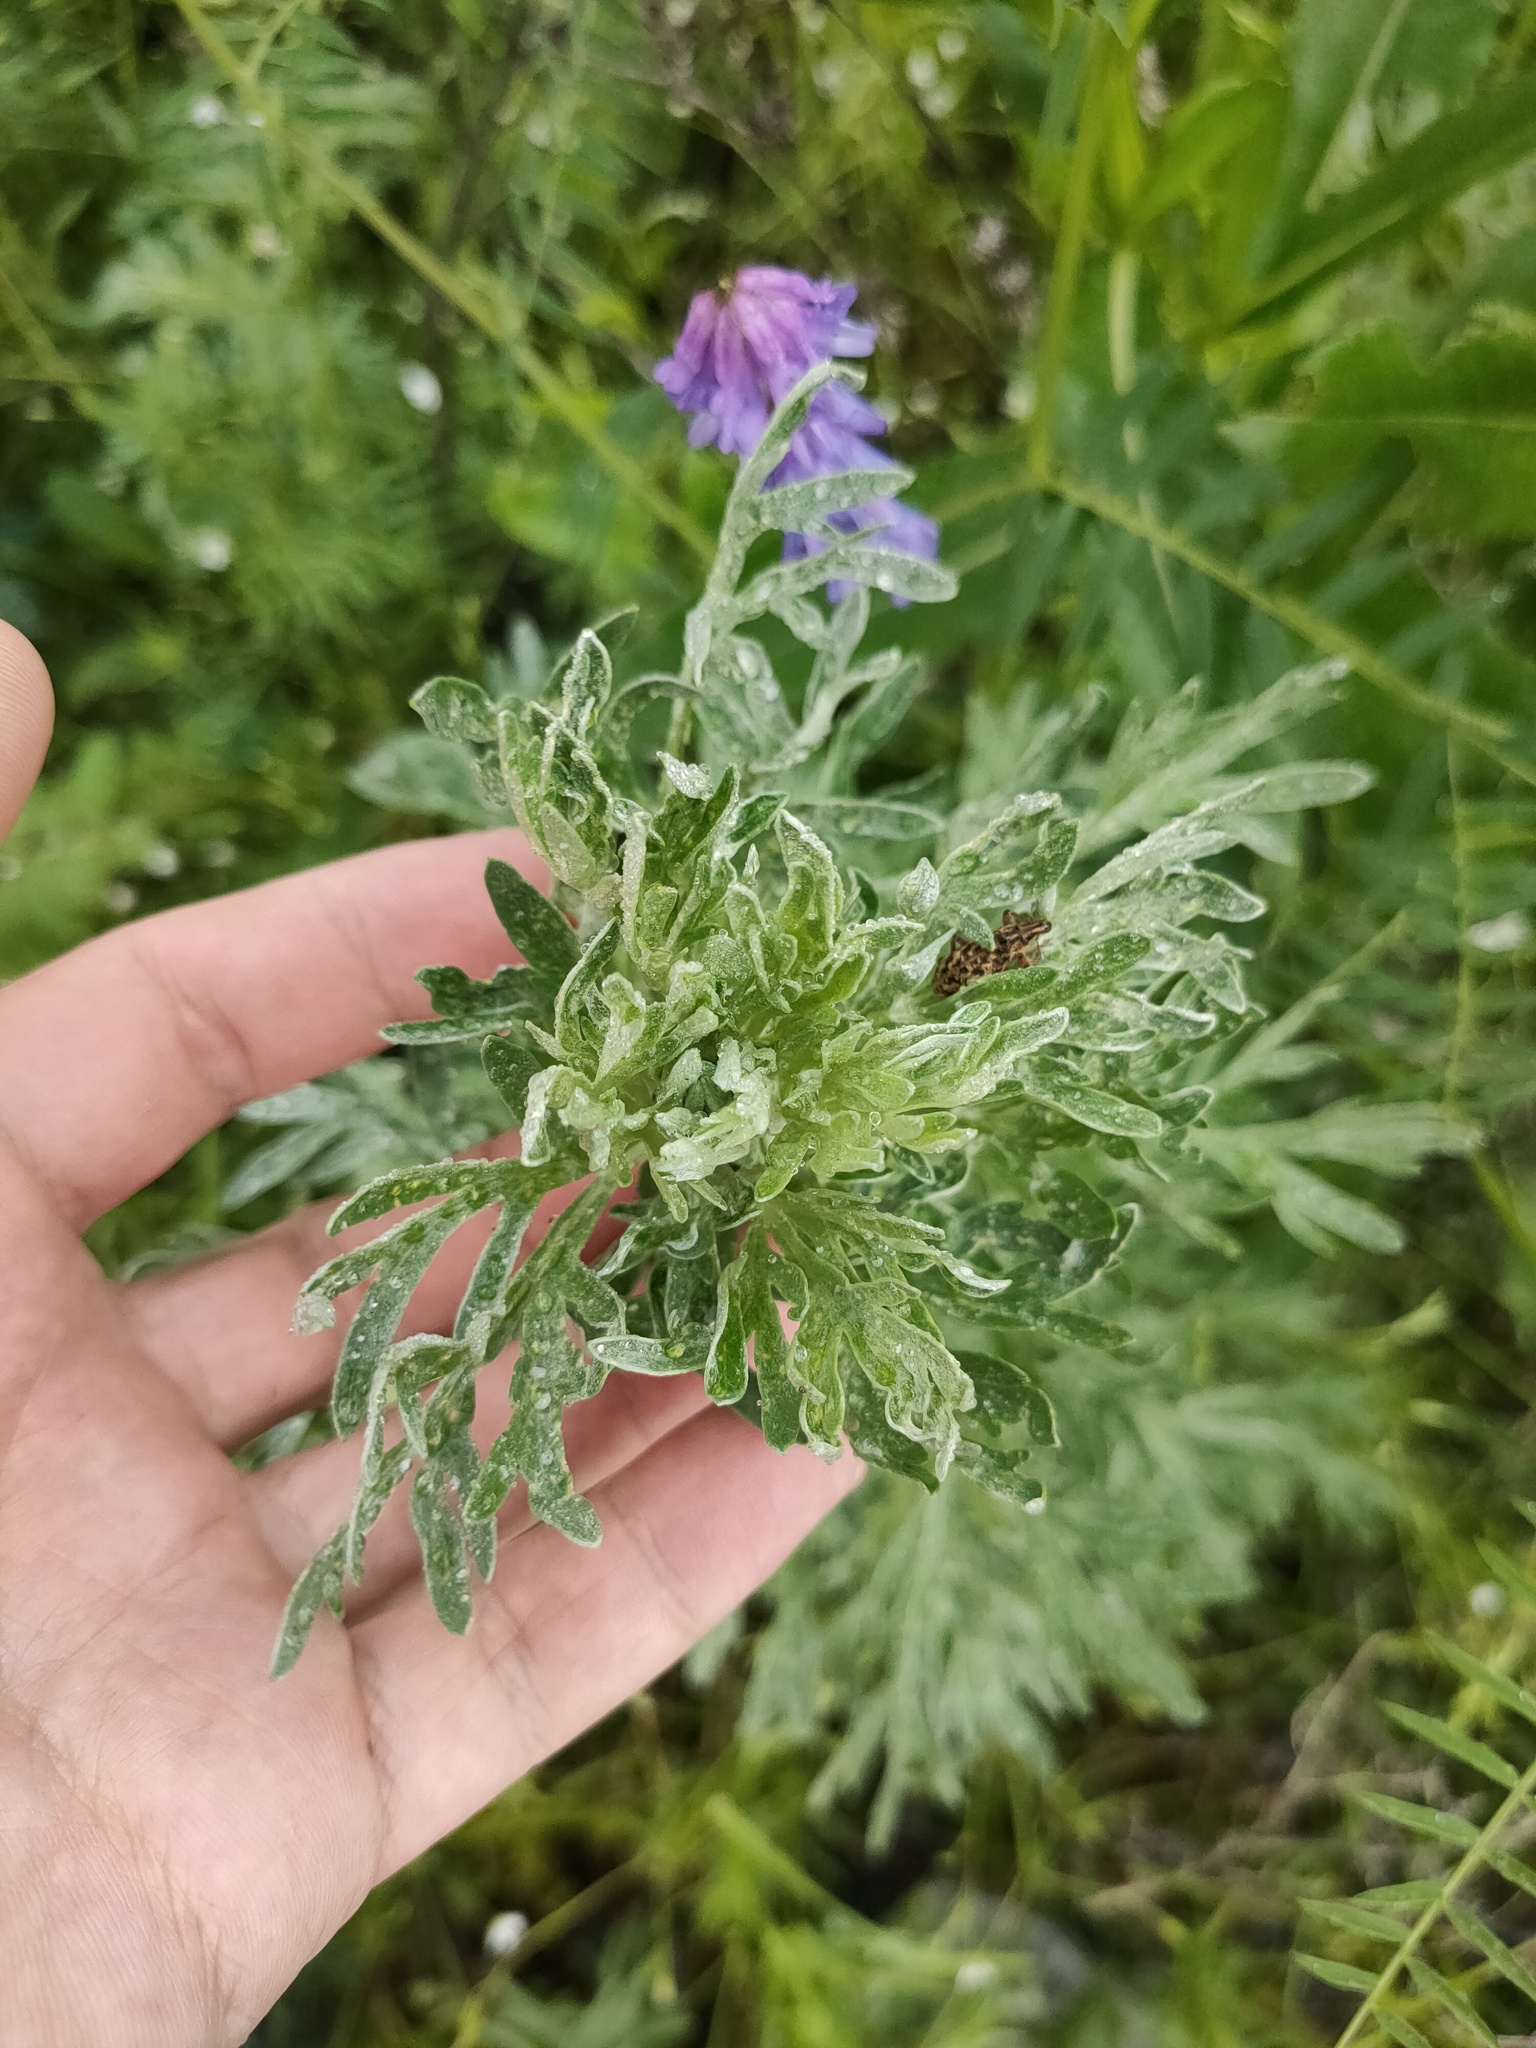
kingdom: Plantae
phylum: Tracheophyta
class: Magnoliopsida
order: Asterales
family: Asteraceae
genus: Artemisia
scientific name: Artemisia absinthium
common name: Wormwood
